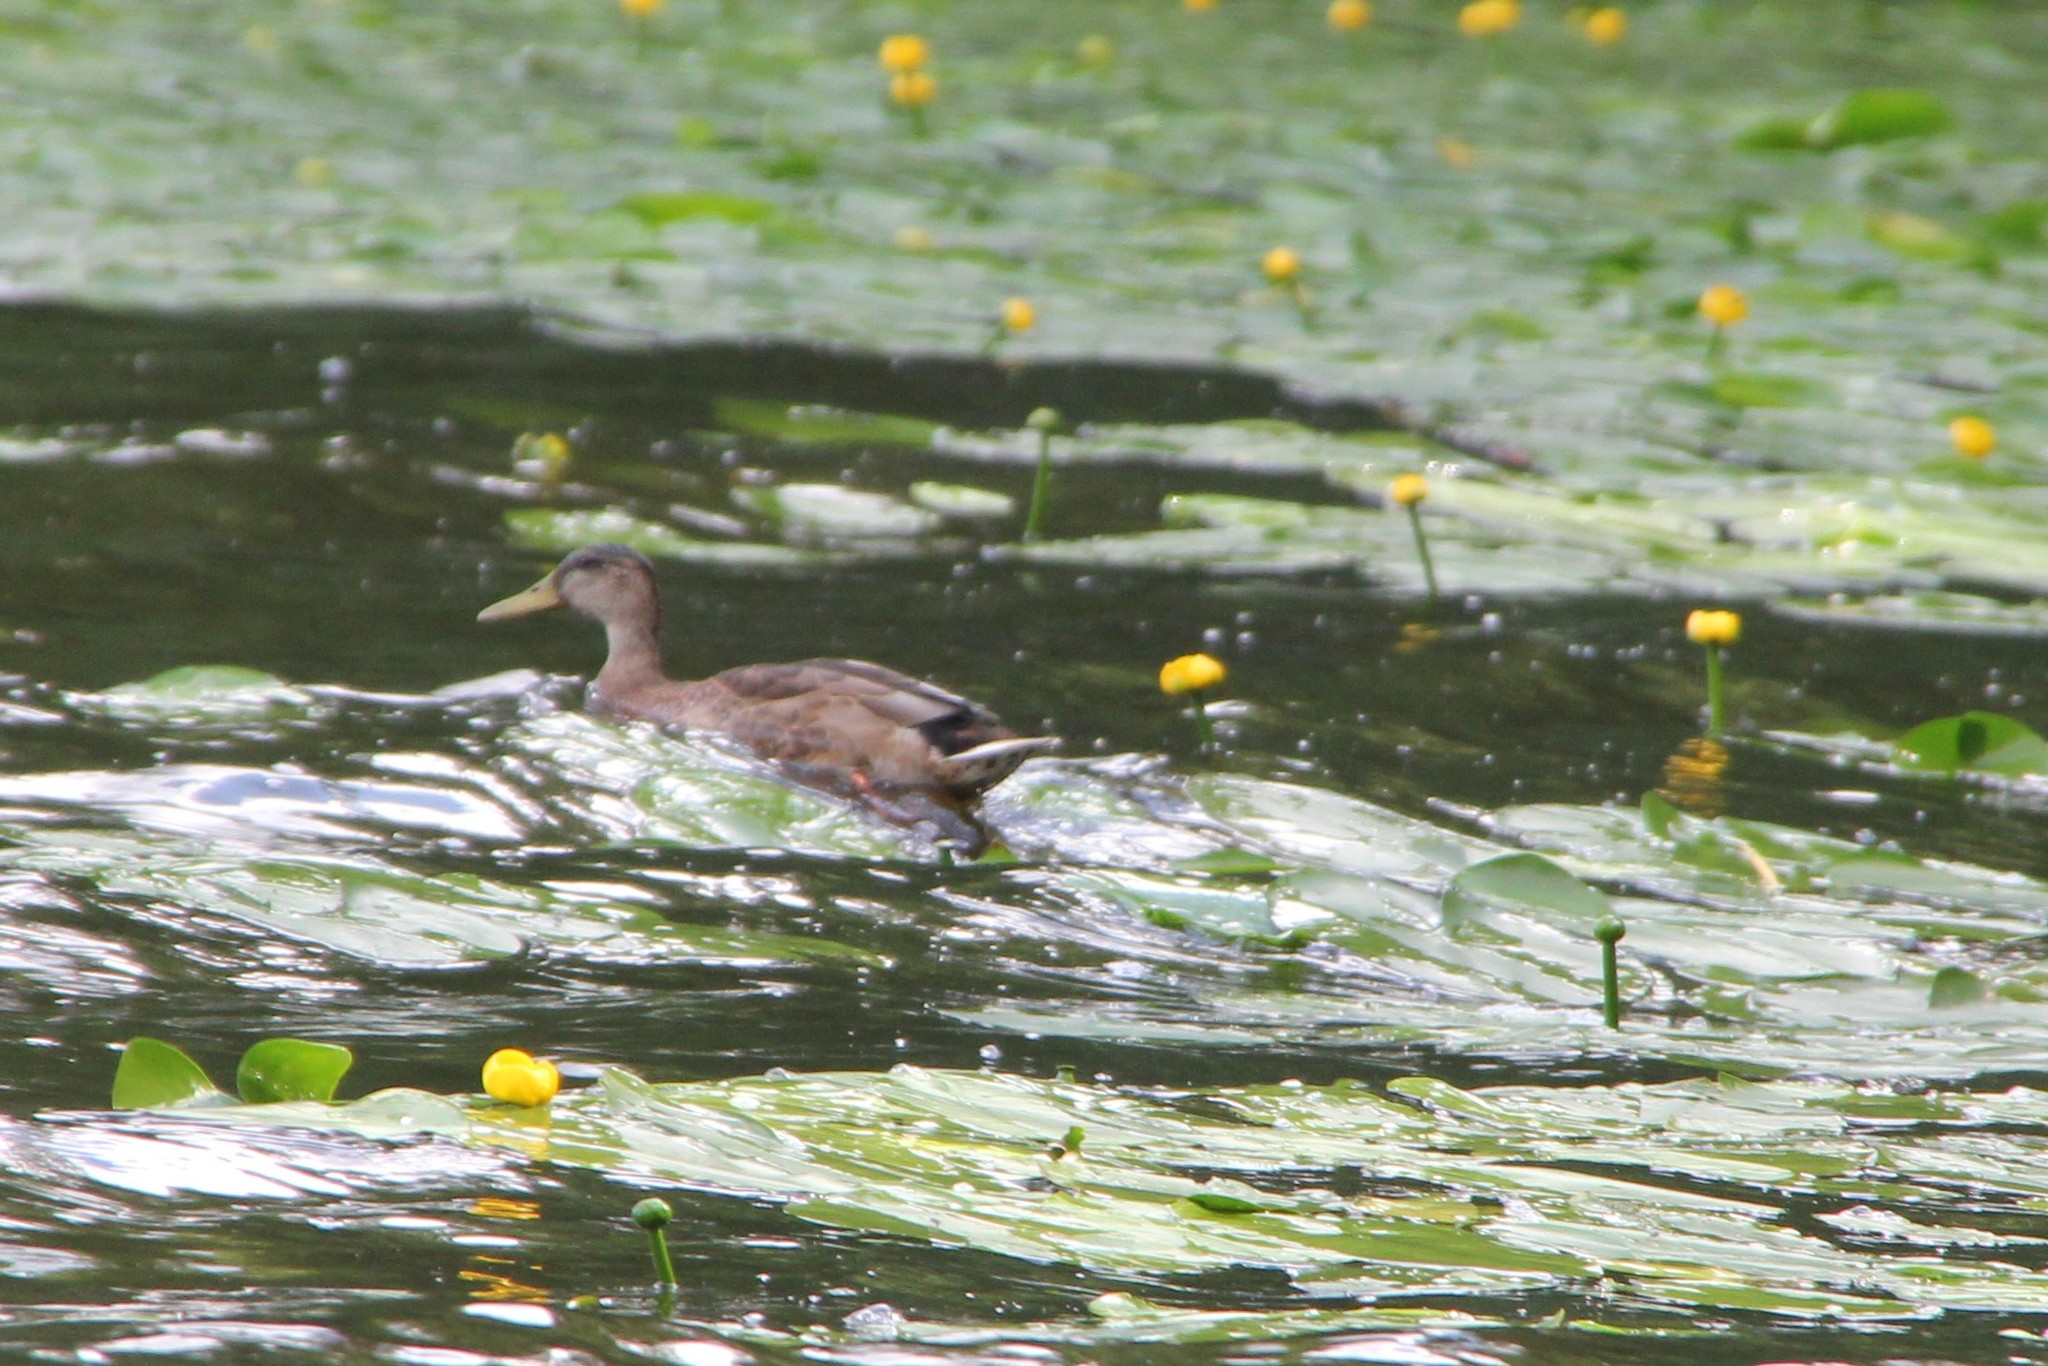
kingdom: Animalia
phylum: Chordata
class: Aves
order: Anseriformes
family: Anatidae
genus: Anas
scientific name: Anas platyrhynchos
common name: Mallard
